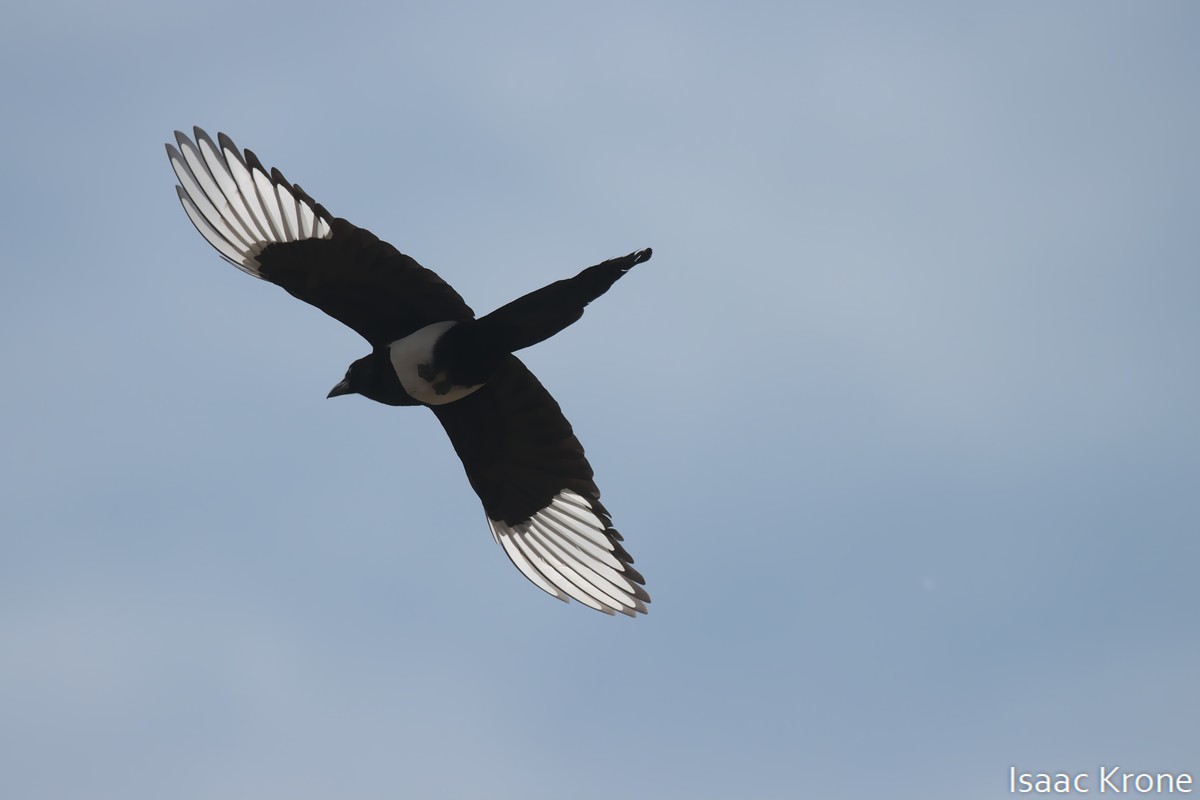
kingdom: Animalia
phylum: Chordata
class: Aves
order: Passeriformes
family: Corvidae
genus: Pica
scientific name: Pica hudsonia
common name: Black-billed magpie
